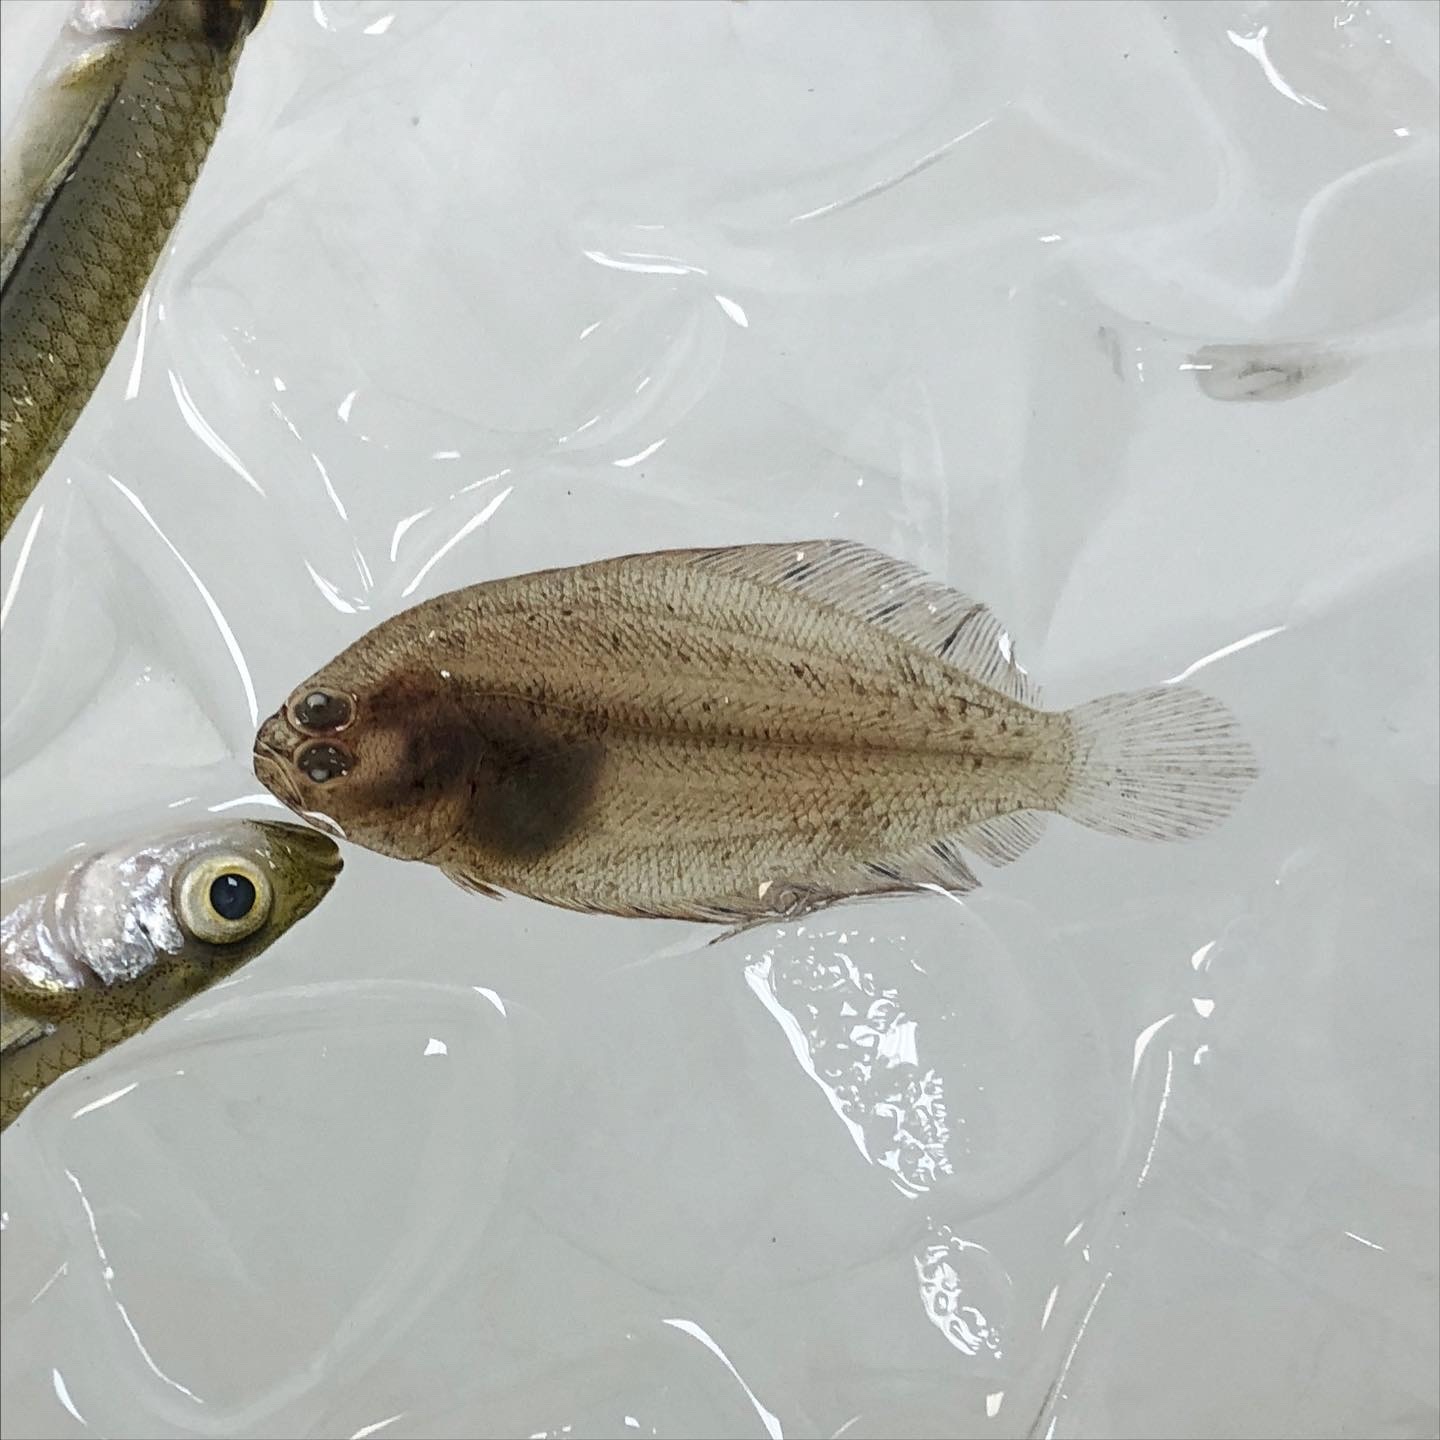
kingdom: Animalia
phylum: Chordata
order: Pleuronectiformes
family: Paralichthyidae
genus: Citharichthys
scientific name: Citharichthys spilopterus
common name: Bay whiff
